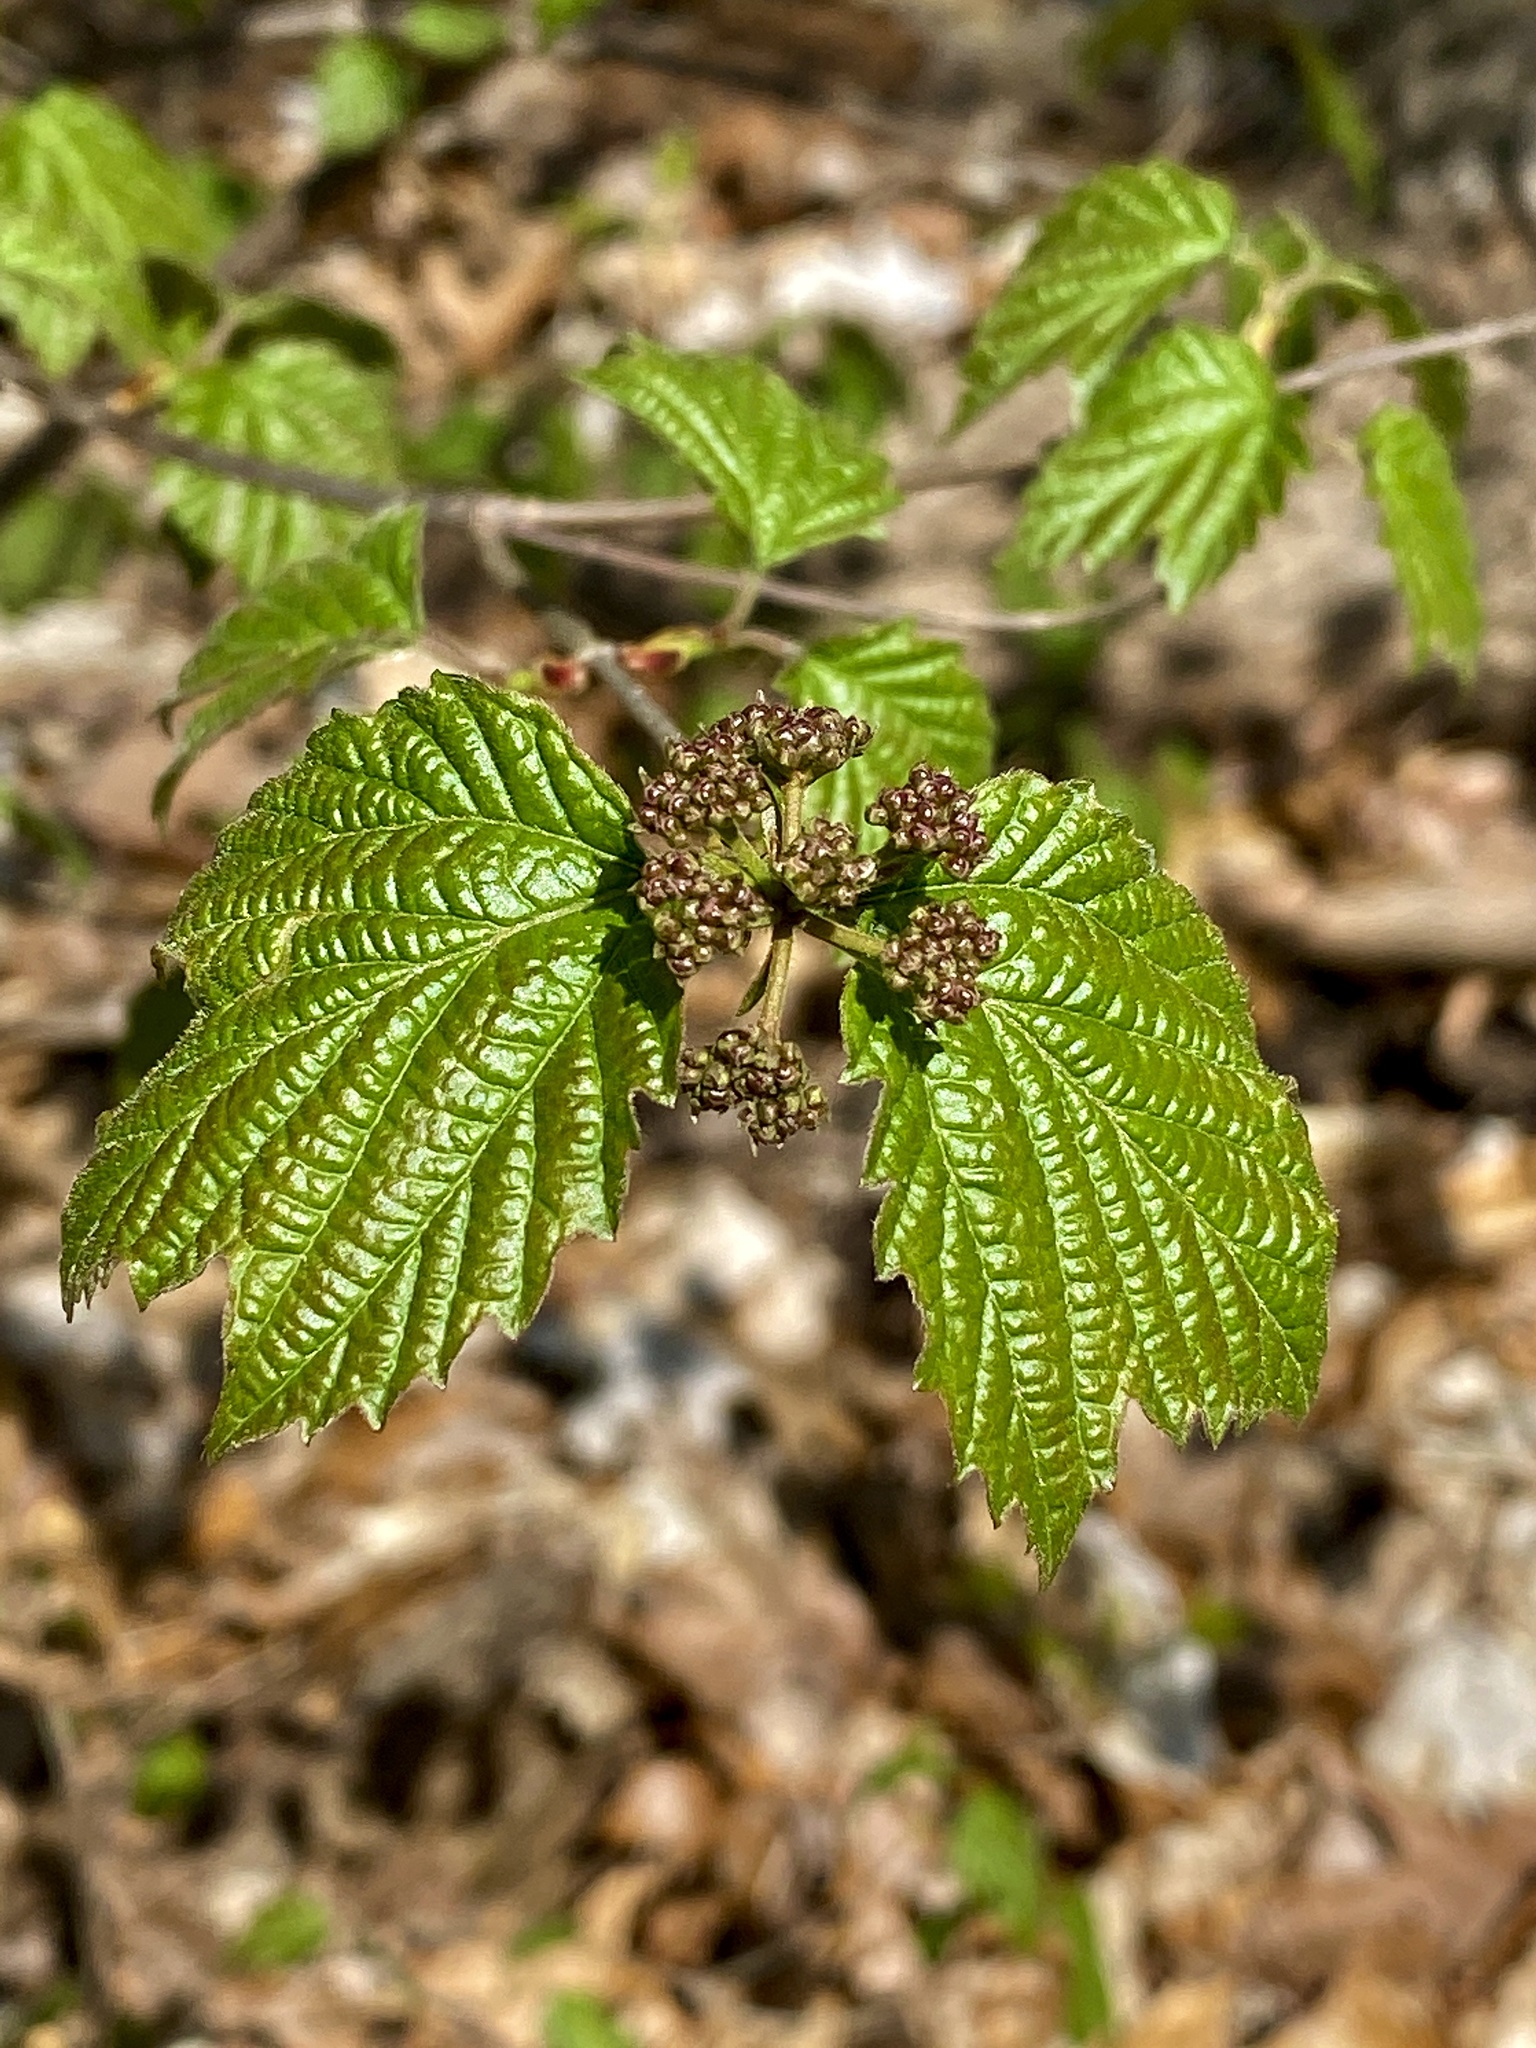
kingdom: Plantae
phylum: Tracheophyta
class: Magnoliopsida
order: Dipsacales
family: Viburnaceae
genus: Viburnum
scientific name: Viburnum acerifolium
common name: Dockmackie
